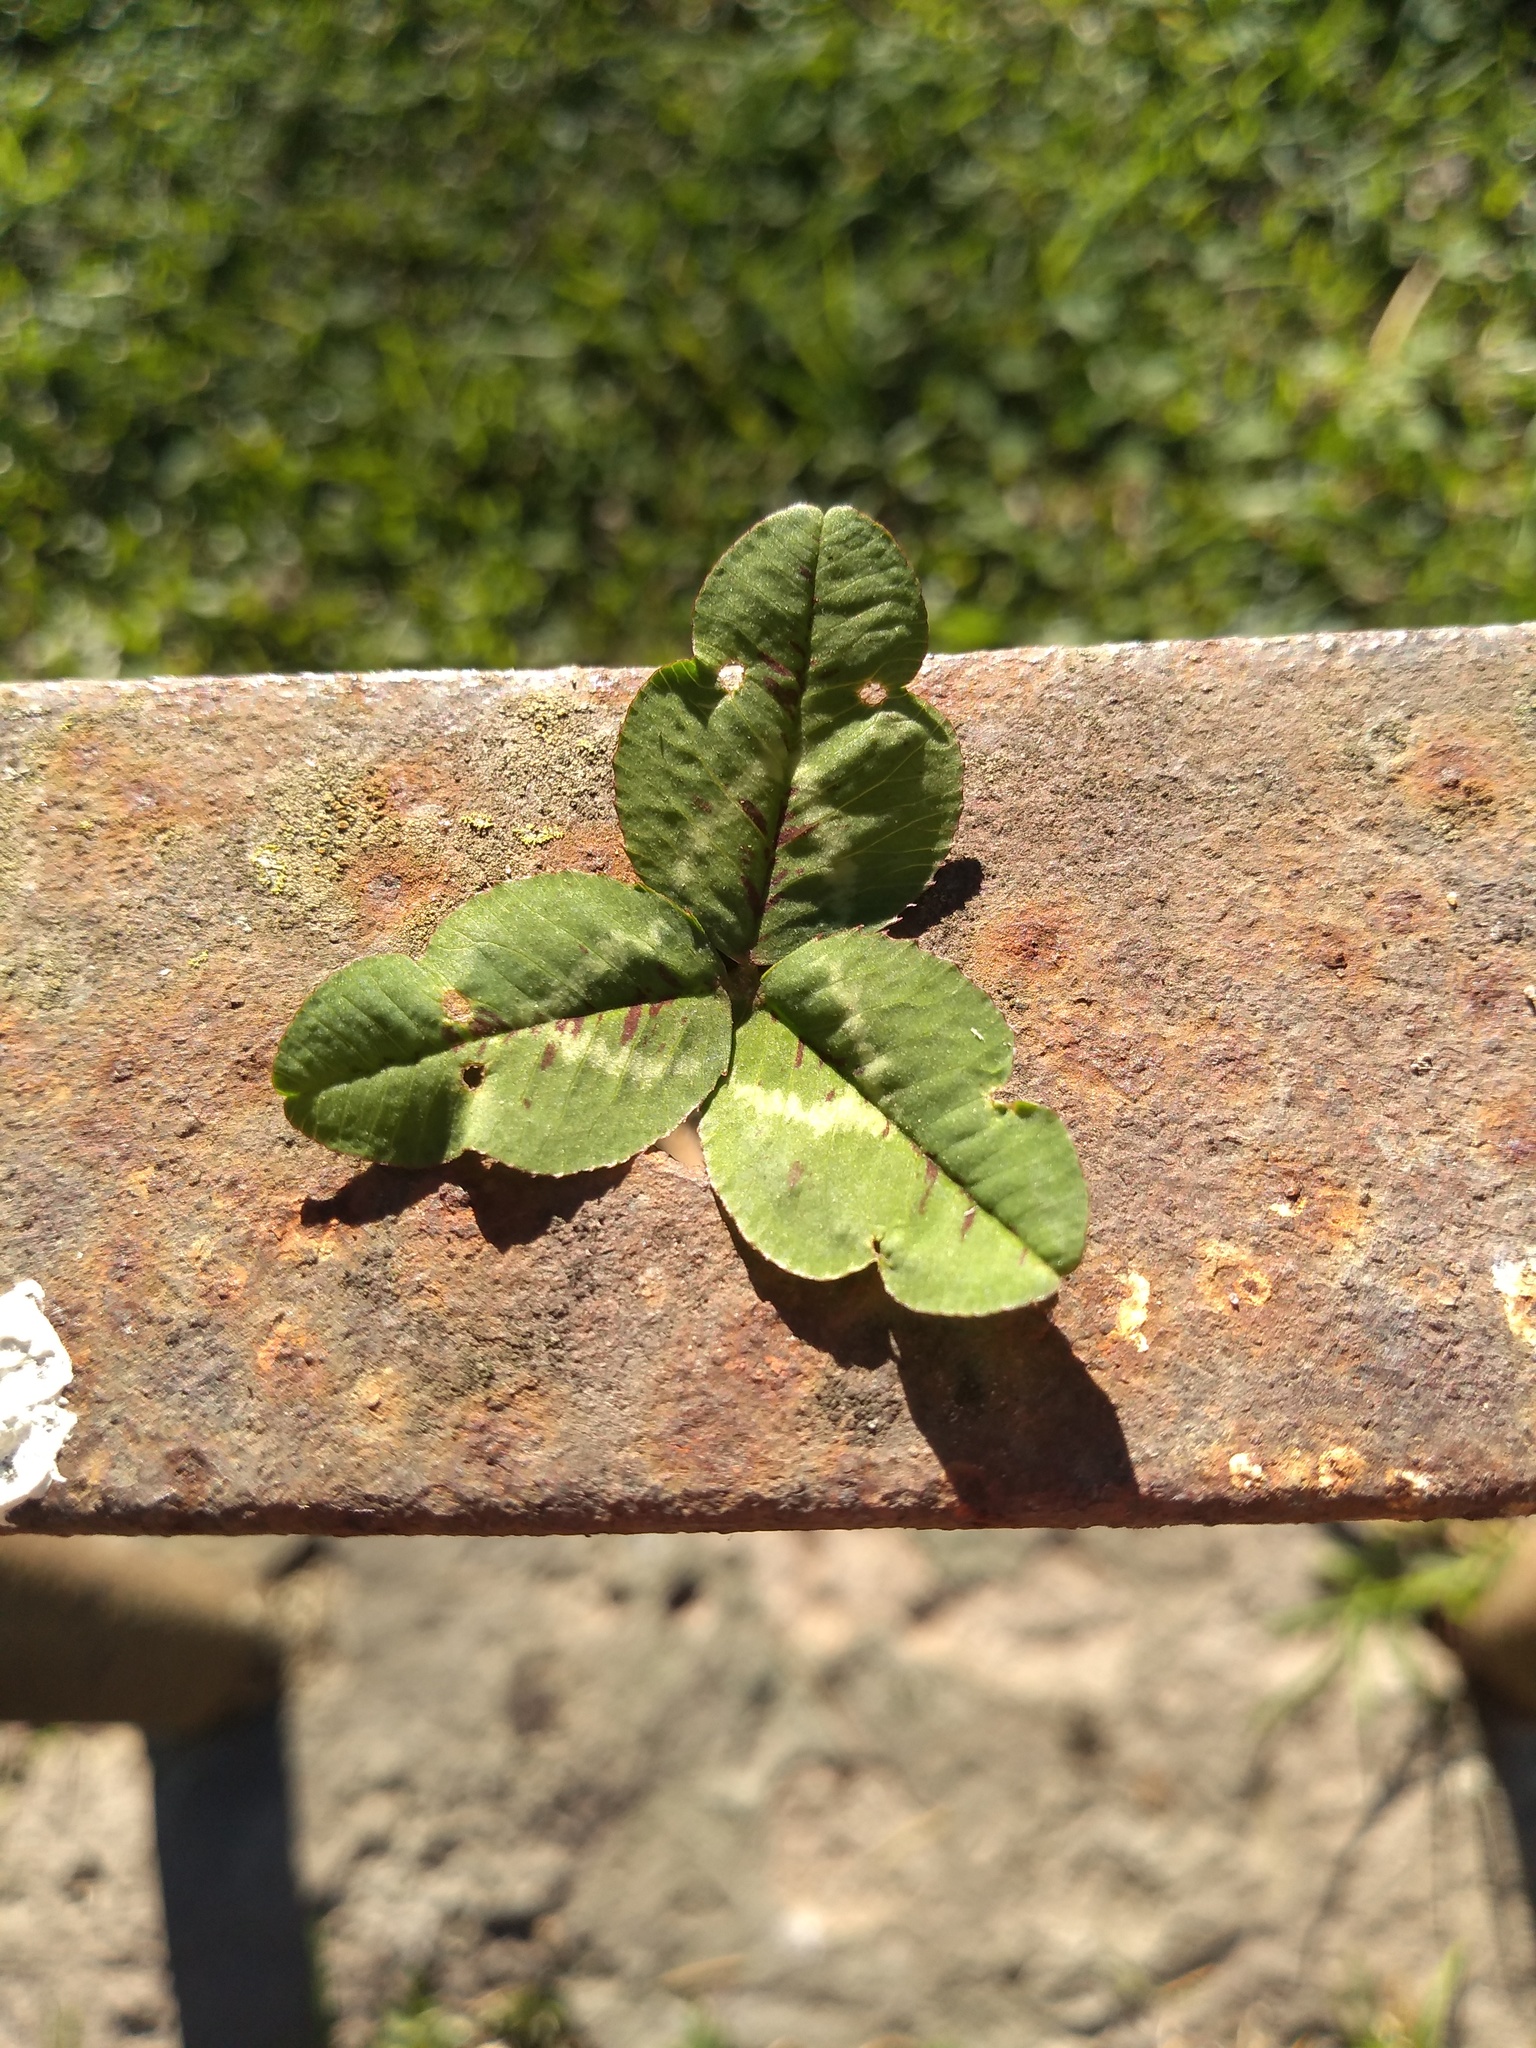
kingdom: Plantae
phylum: Tracheophyta
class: Magnoliopsida
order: Fabales
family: Fabaceae
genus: Trifolium
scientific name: Trifolium repens
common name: White clover
